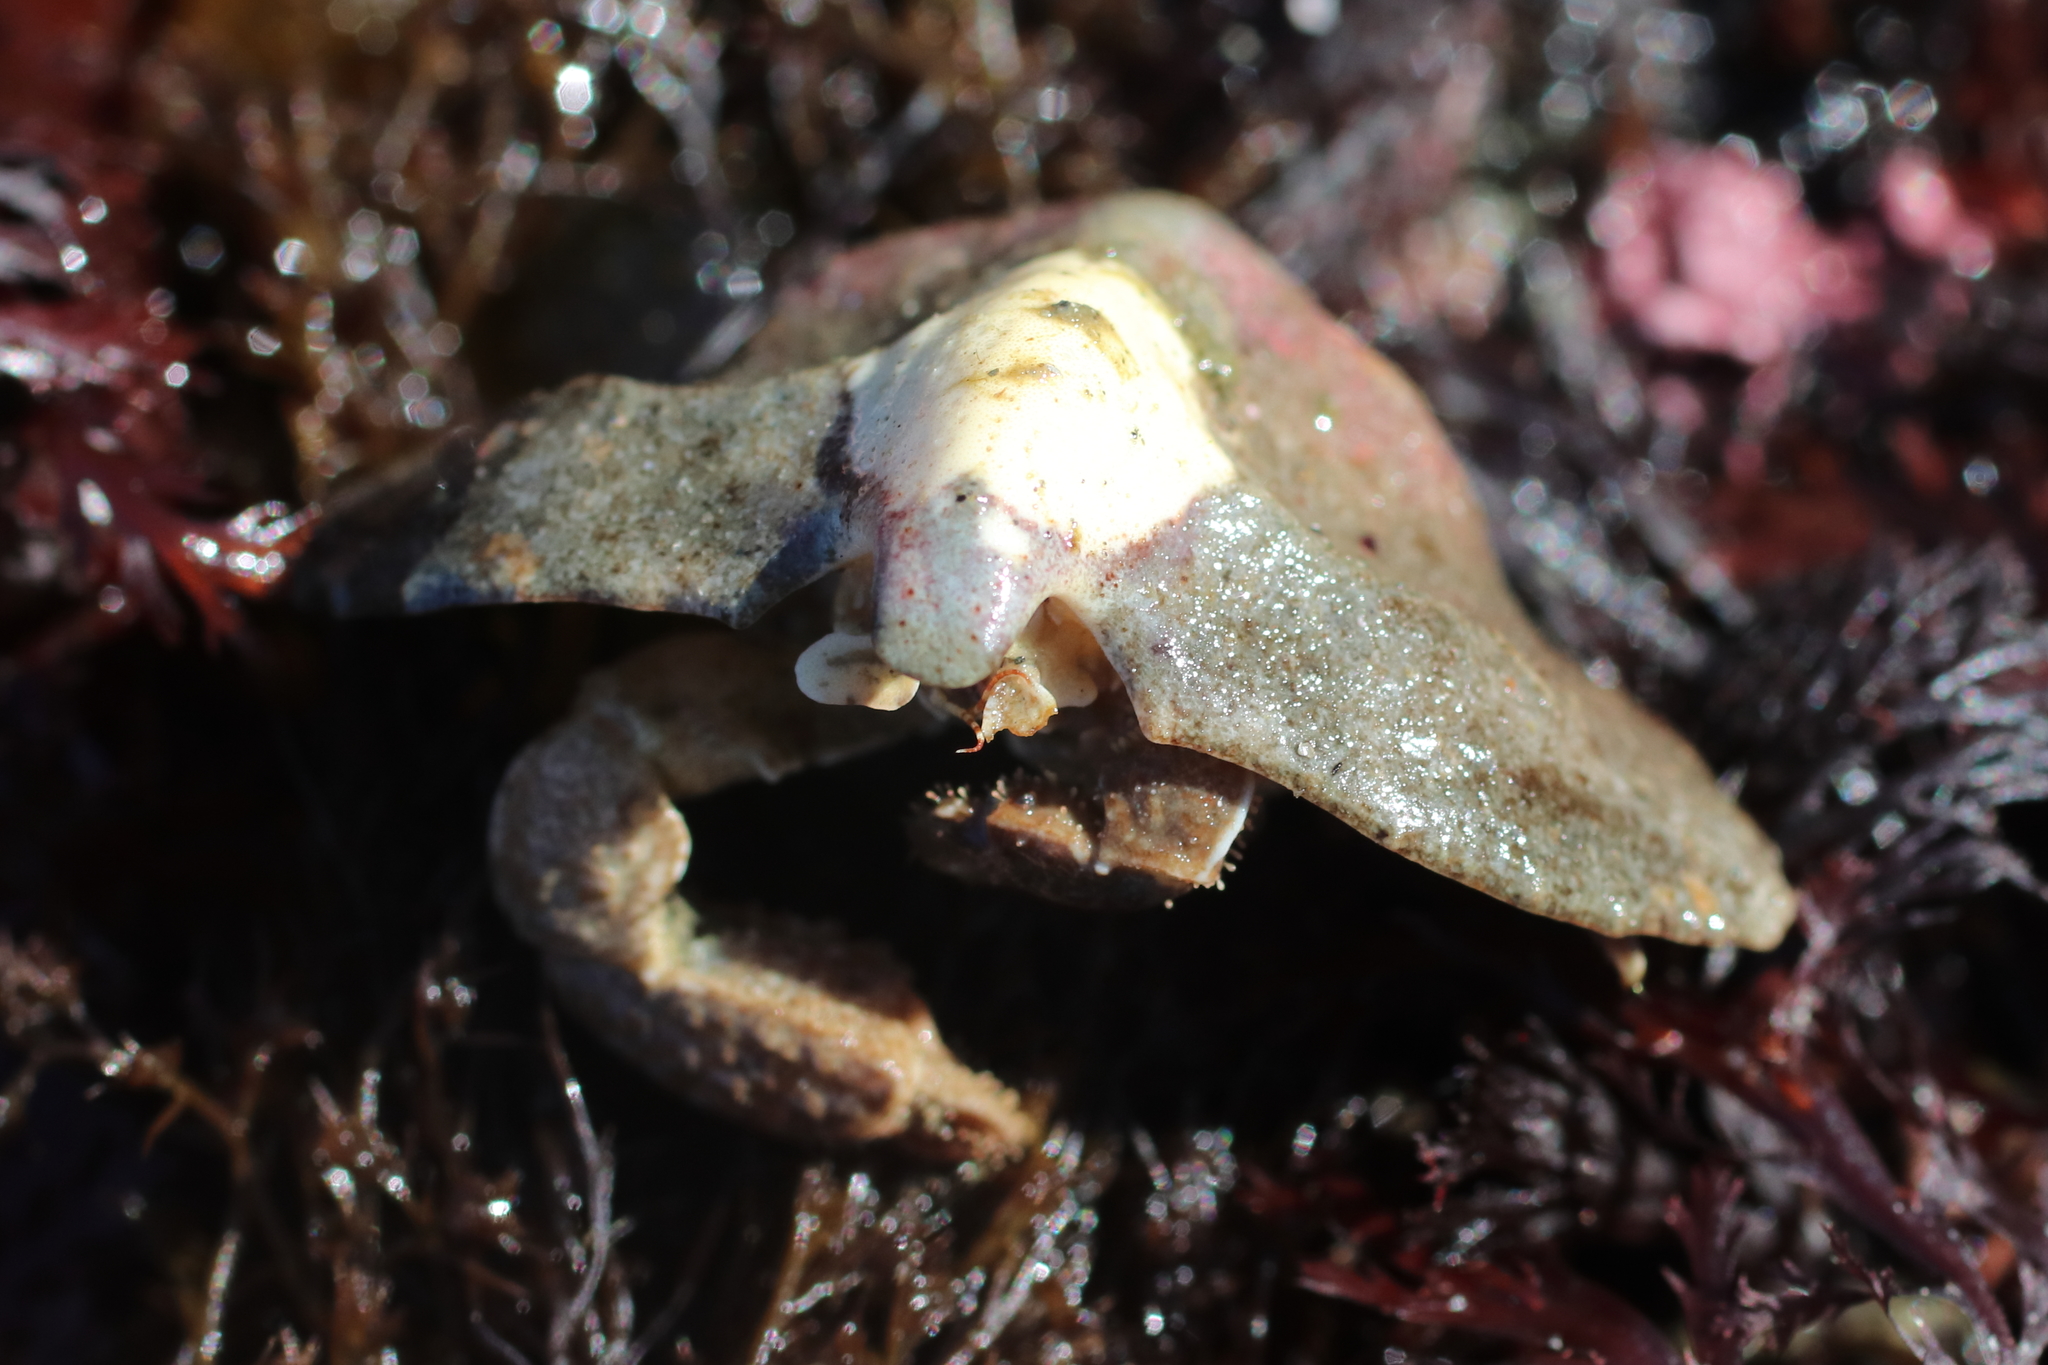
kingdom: Animalia
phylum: Arthropoda
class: Malacostraca
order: Decapoda
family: Lithodidae
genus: Cryptolithodes
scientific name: Cryptolithodes typicus
